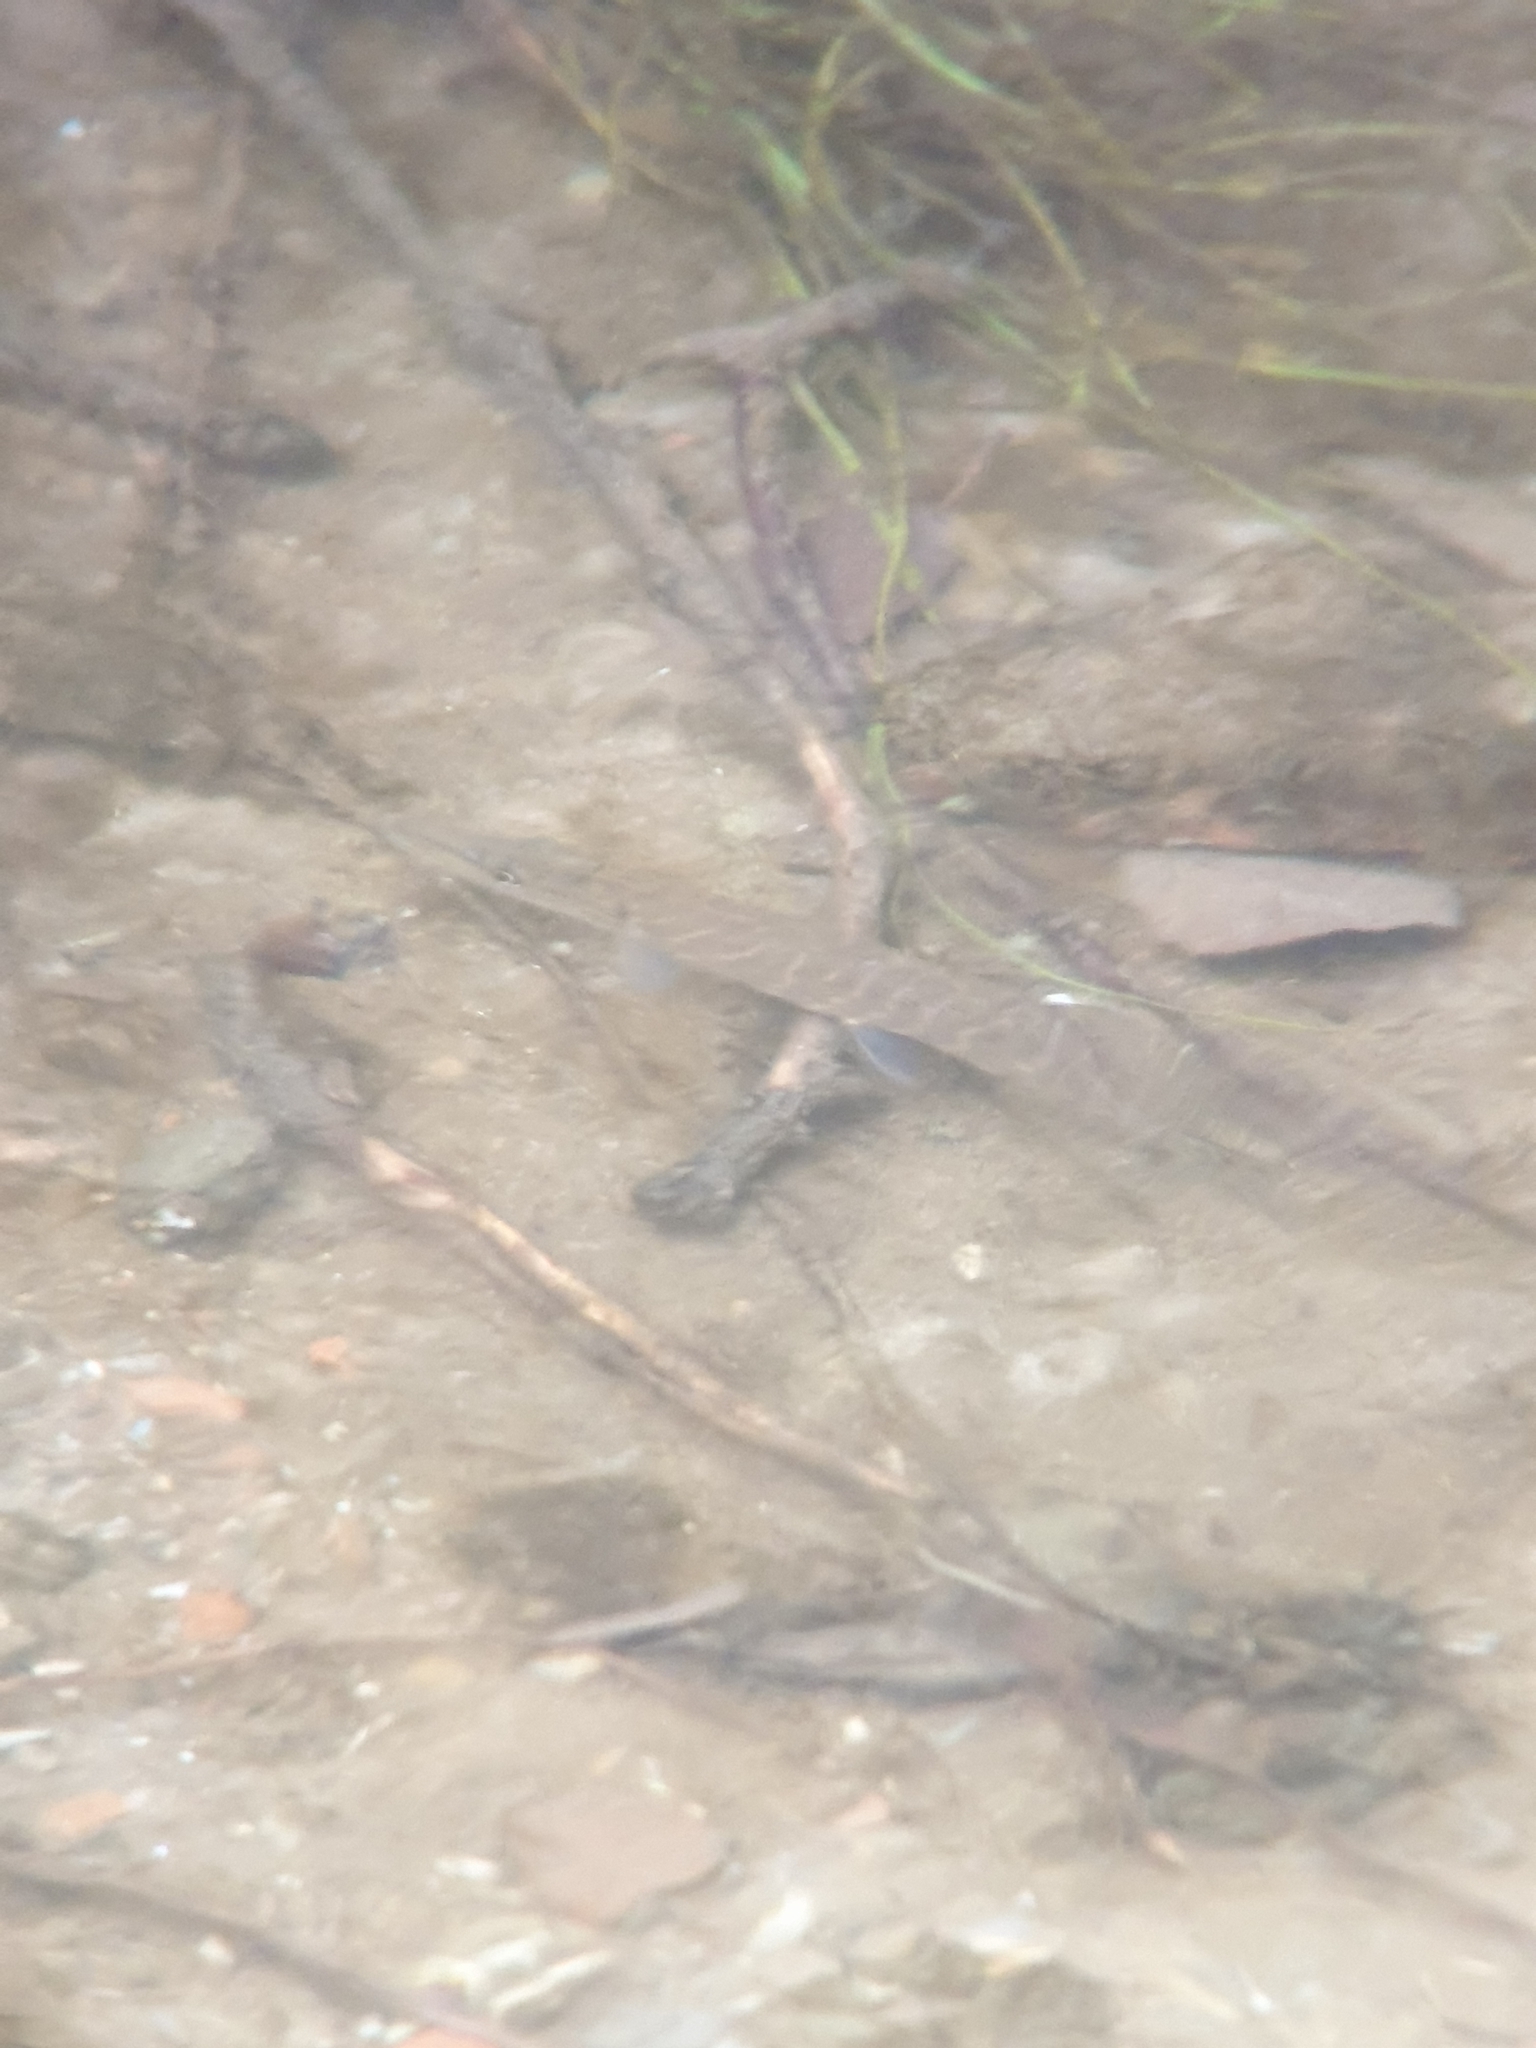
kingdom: Animalia
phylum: Chordata
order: Esociformes
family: Esocidae
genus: Esox
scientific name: Esox lucius
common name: Northern pike
